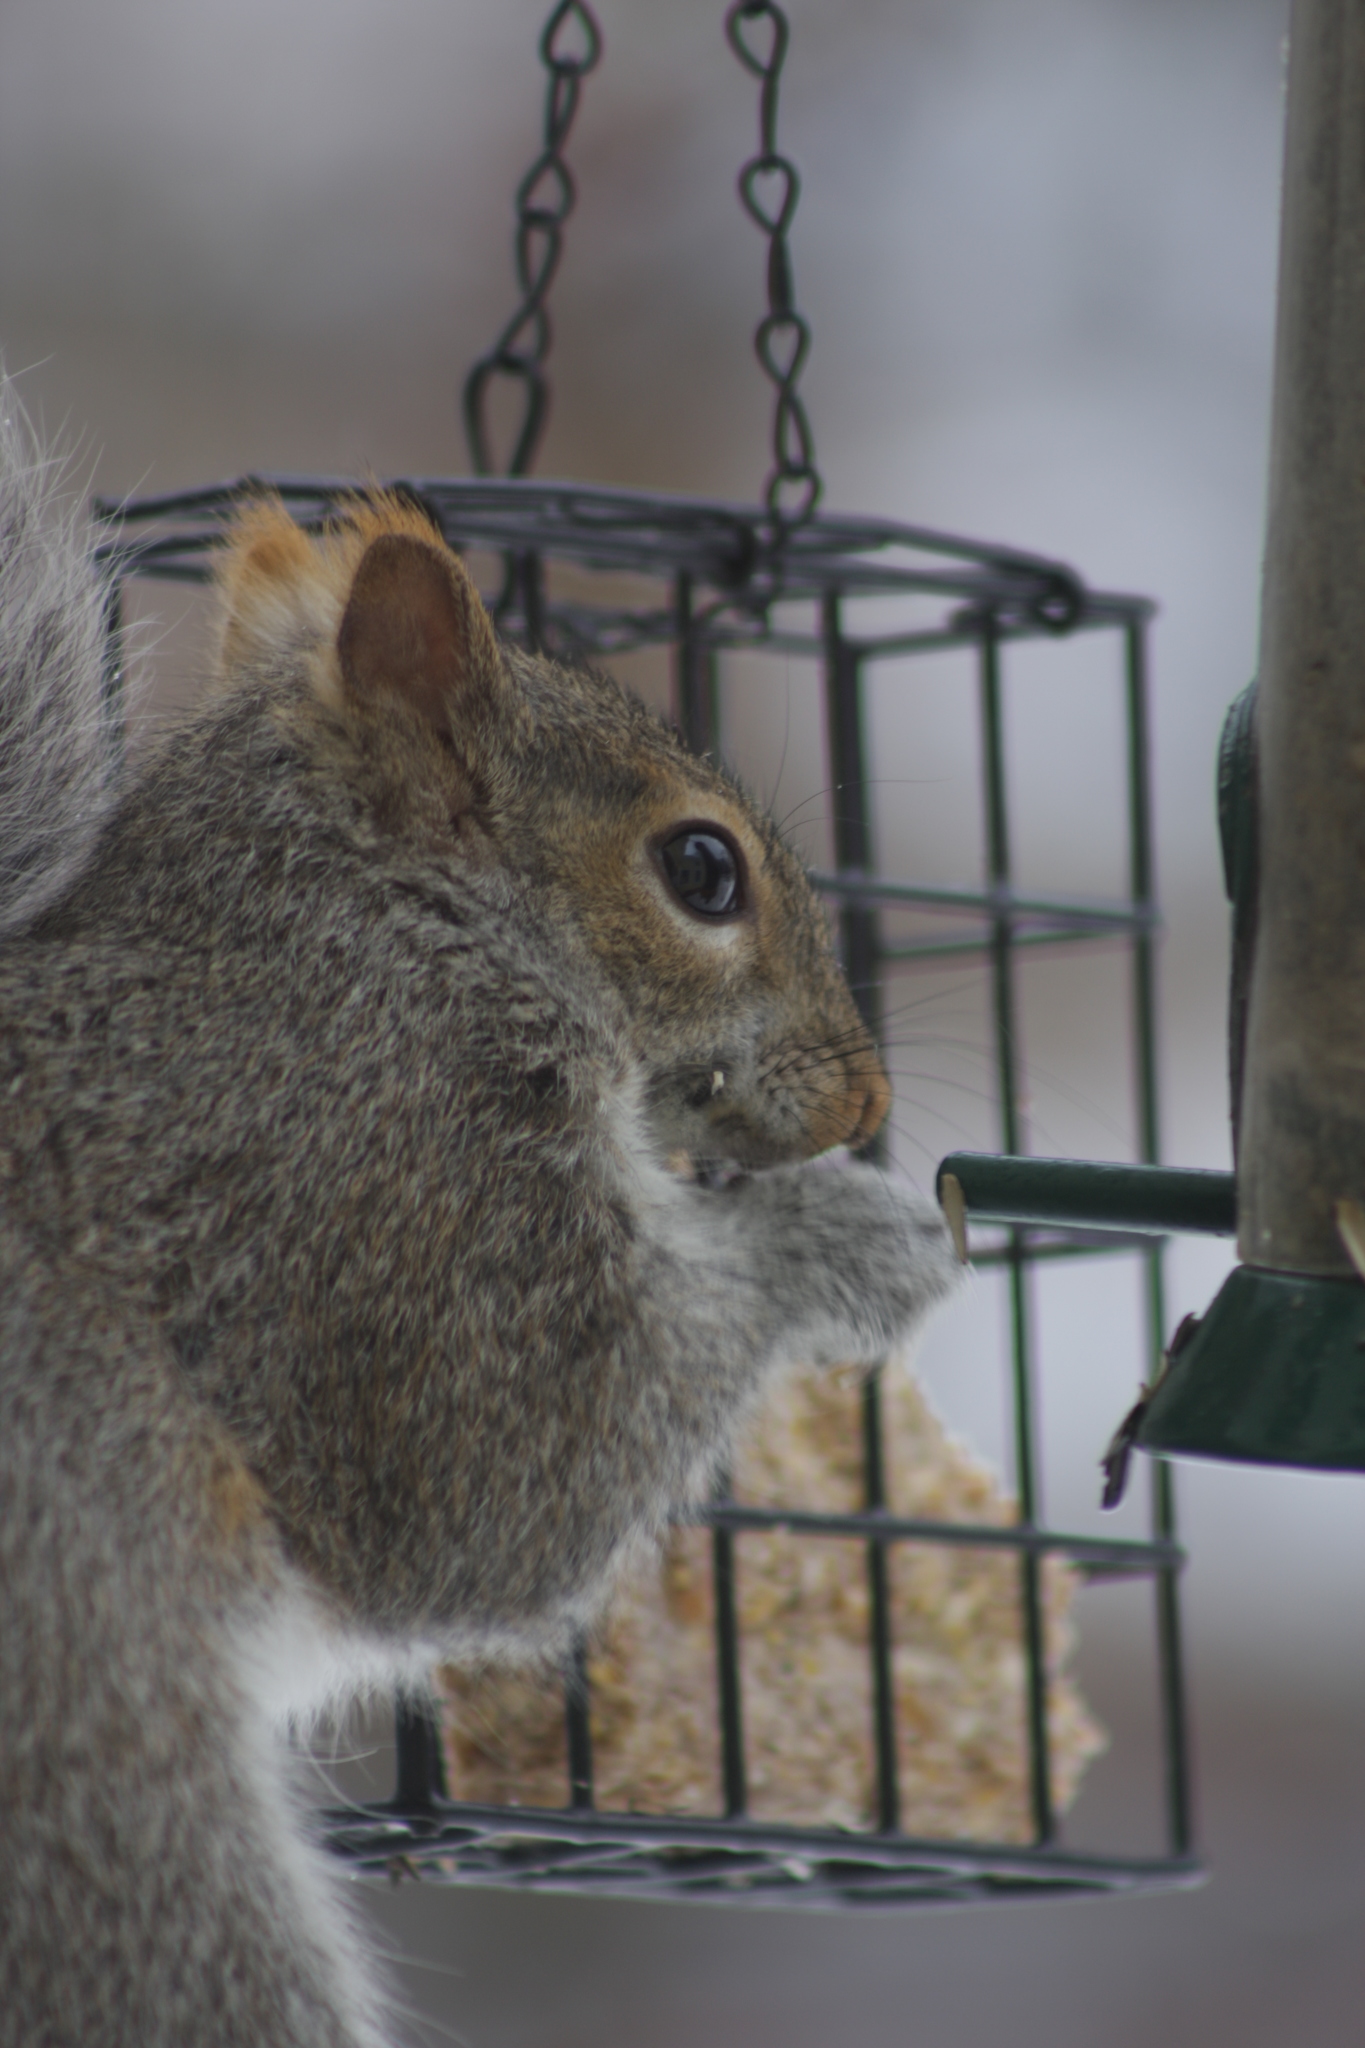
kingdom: Animalia
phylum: Chordata
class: Mammalia
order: Rodentia
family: Sciuridae
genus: Sciurus
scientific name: Sciurus carolinensis
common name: Eastern gray squirrel
